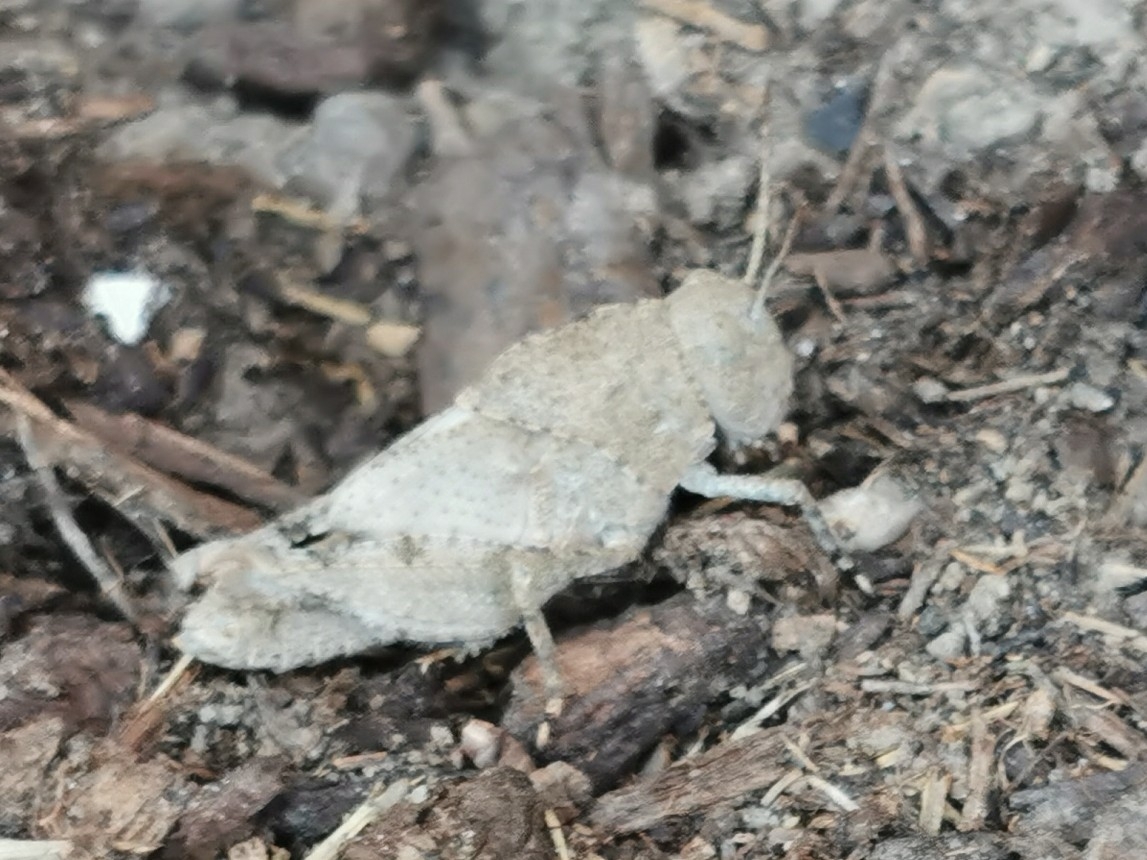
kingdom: Animalia
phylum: Arthropoda
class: Insecta
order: Orthoptera
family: Acrididae
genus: Dissosteira
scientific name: Dissosteira carolina
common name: Carolina grasshopper
